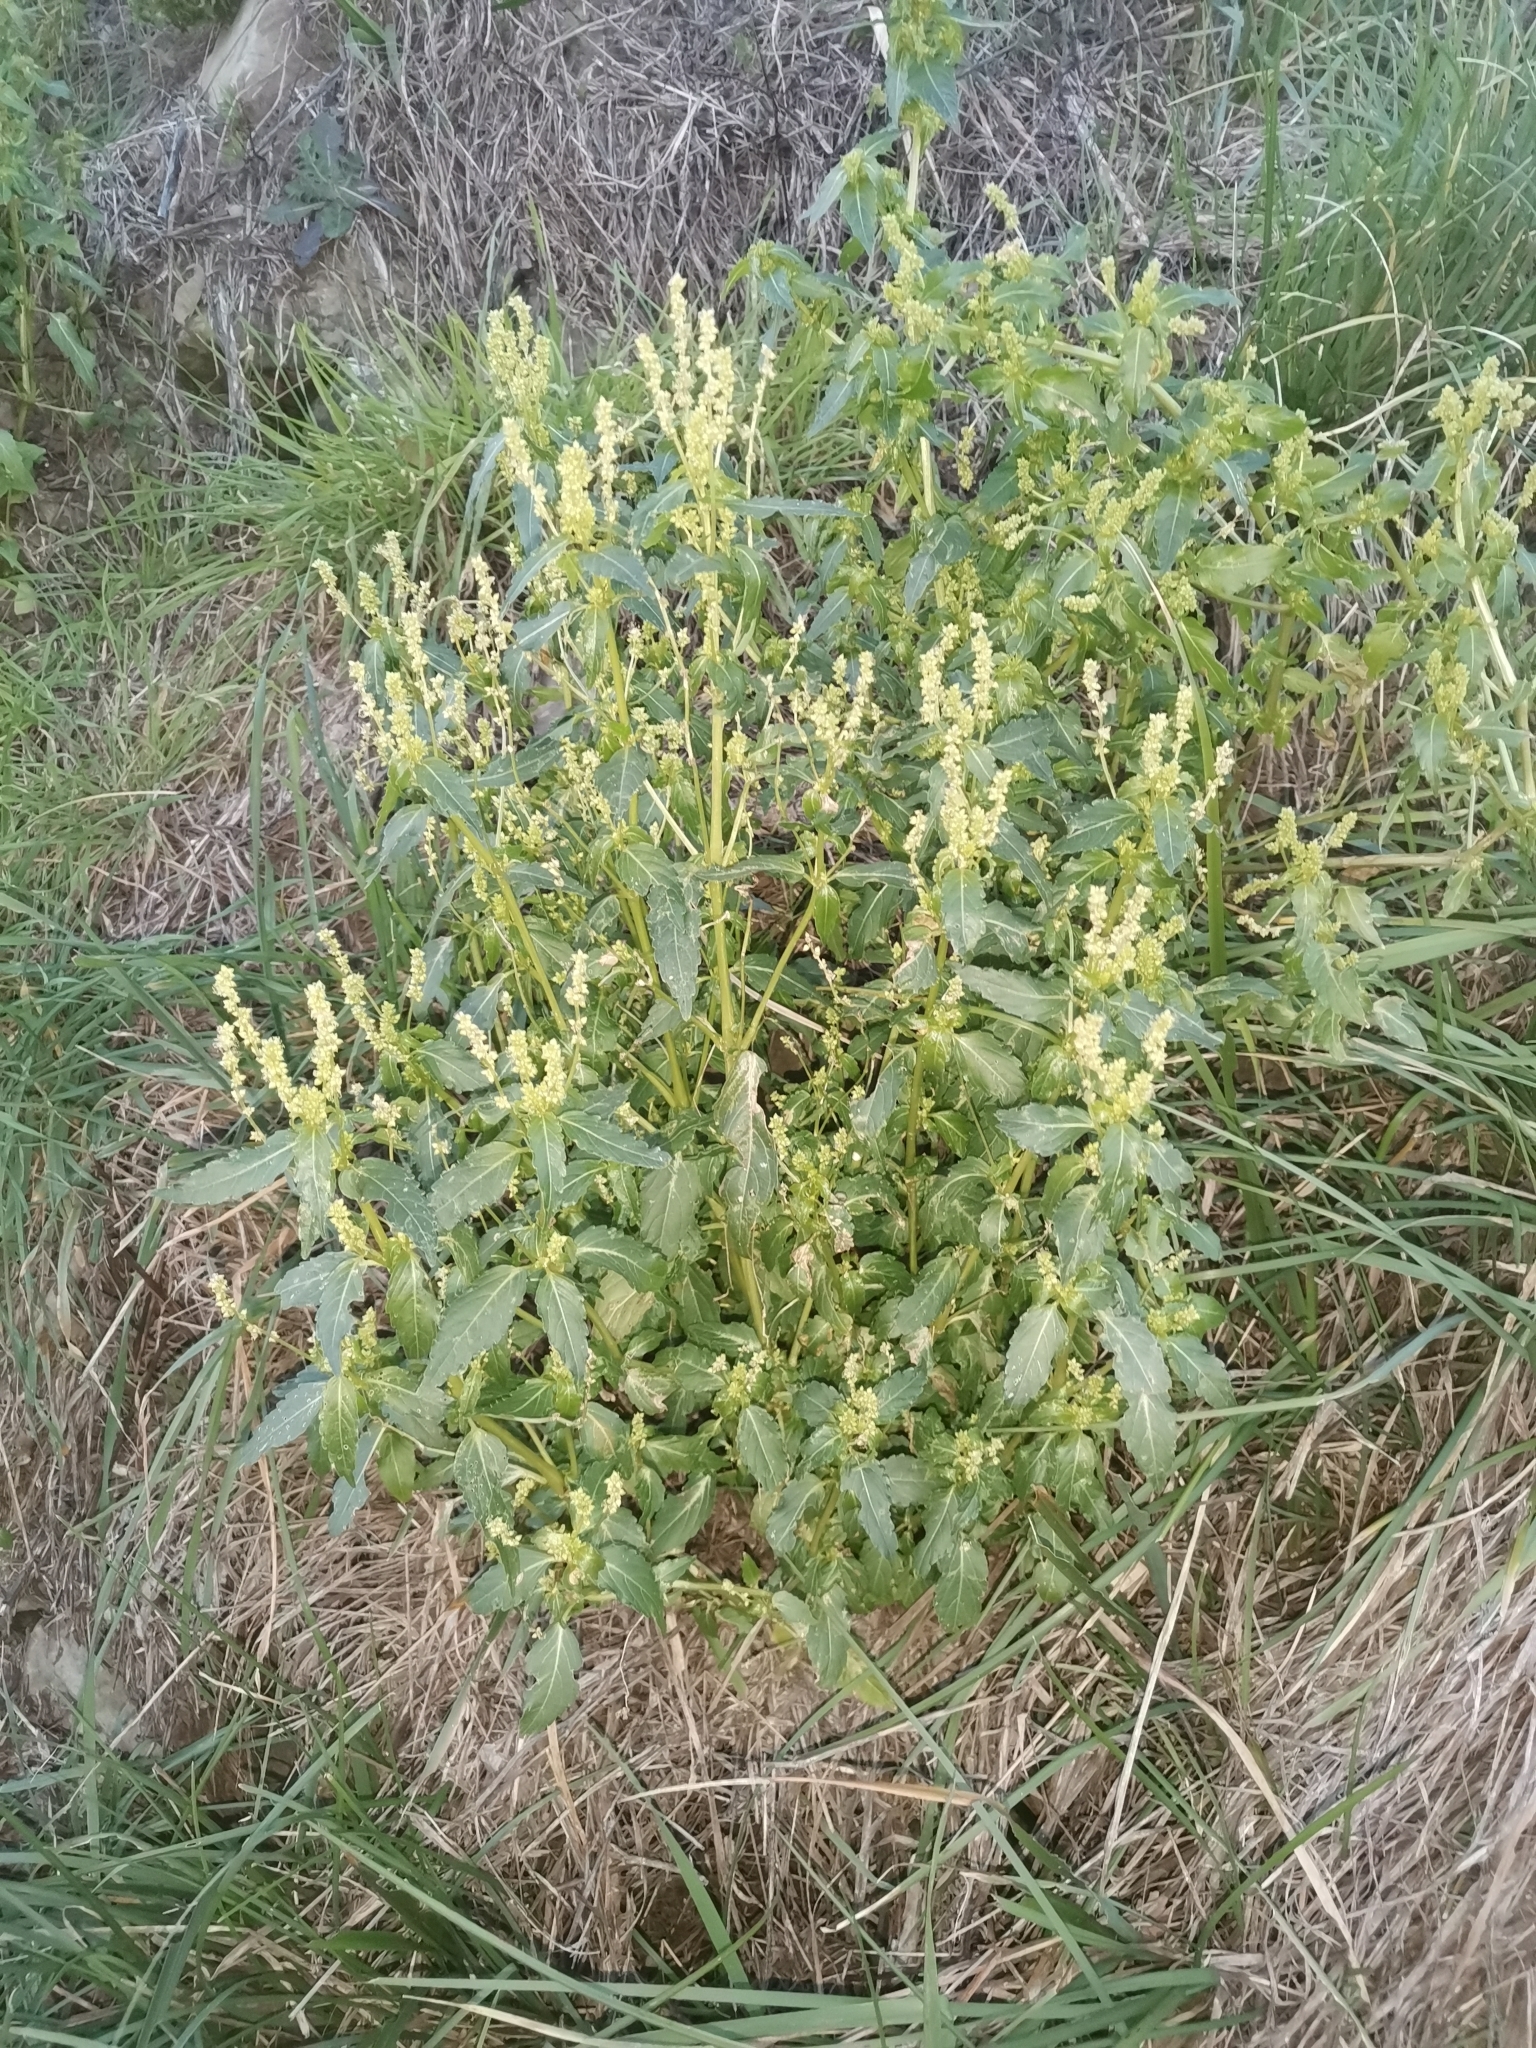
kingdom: Plantae
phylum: Tracheophyta
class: Magnoliopsida
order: Malpighiales
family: Euphorbiaceae
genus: Mercurialis
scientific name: Mercurialis annua
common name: Annual mercury
